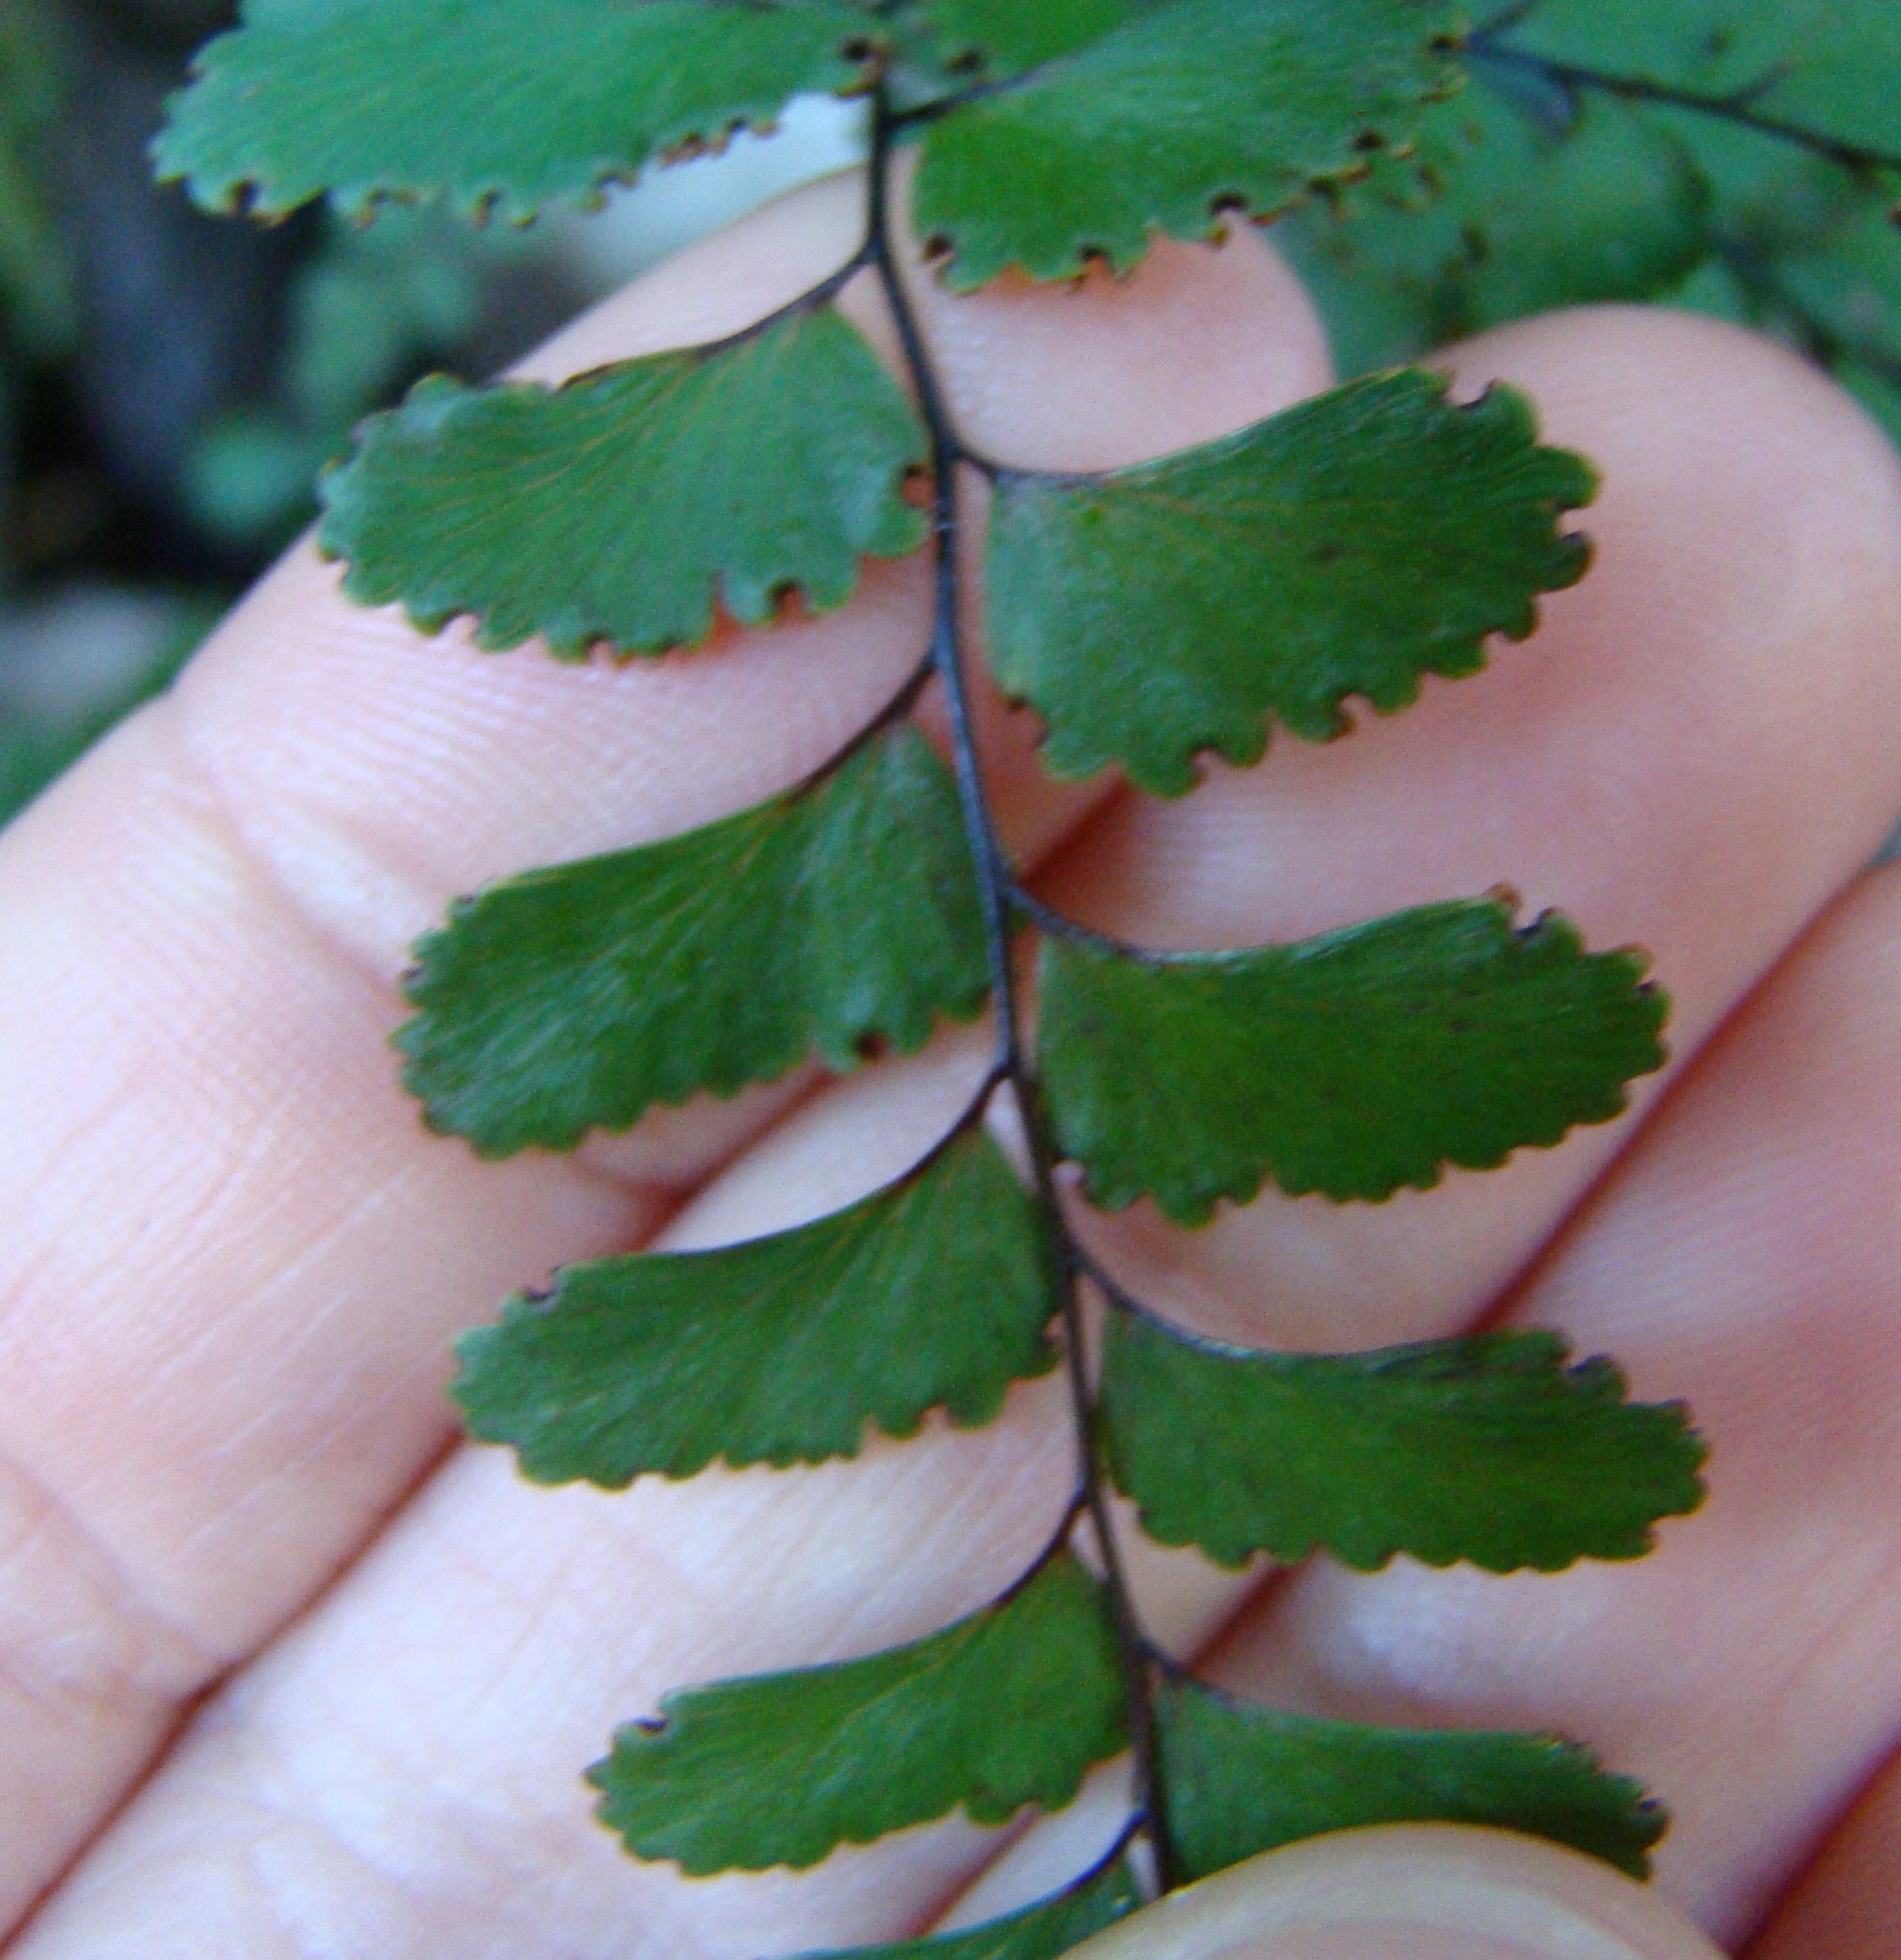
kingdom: Plantae
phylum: Tracheophyta
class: Polypodiopsida
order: Polypodiales
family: Pteridaceae
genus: Adiantum
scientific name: Adiantum cunninghamii
